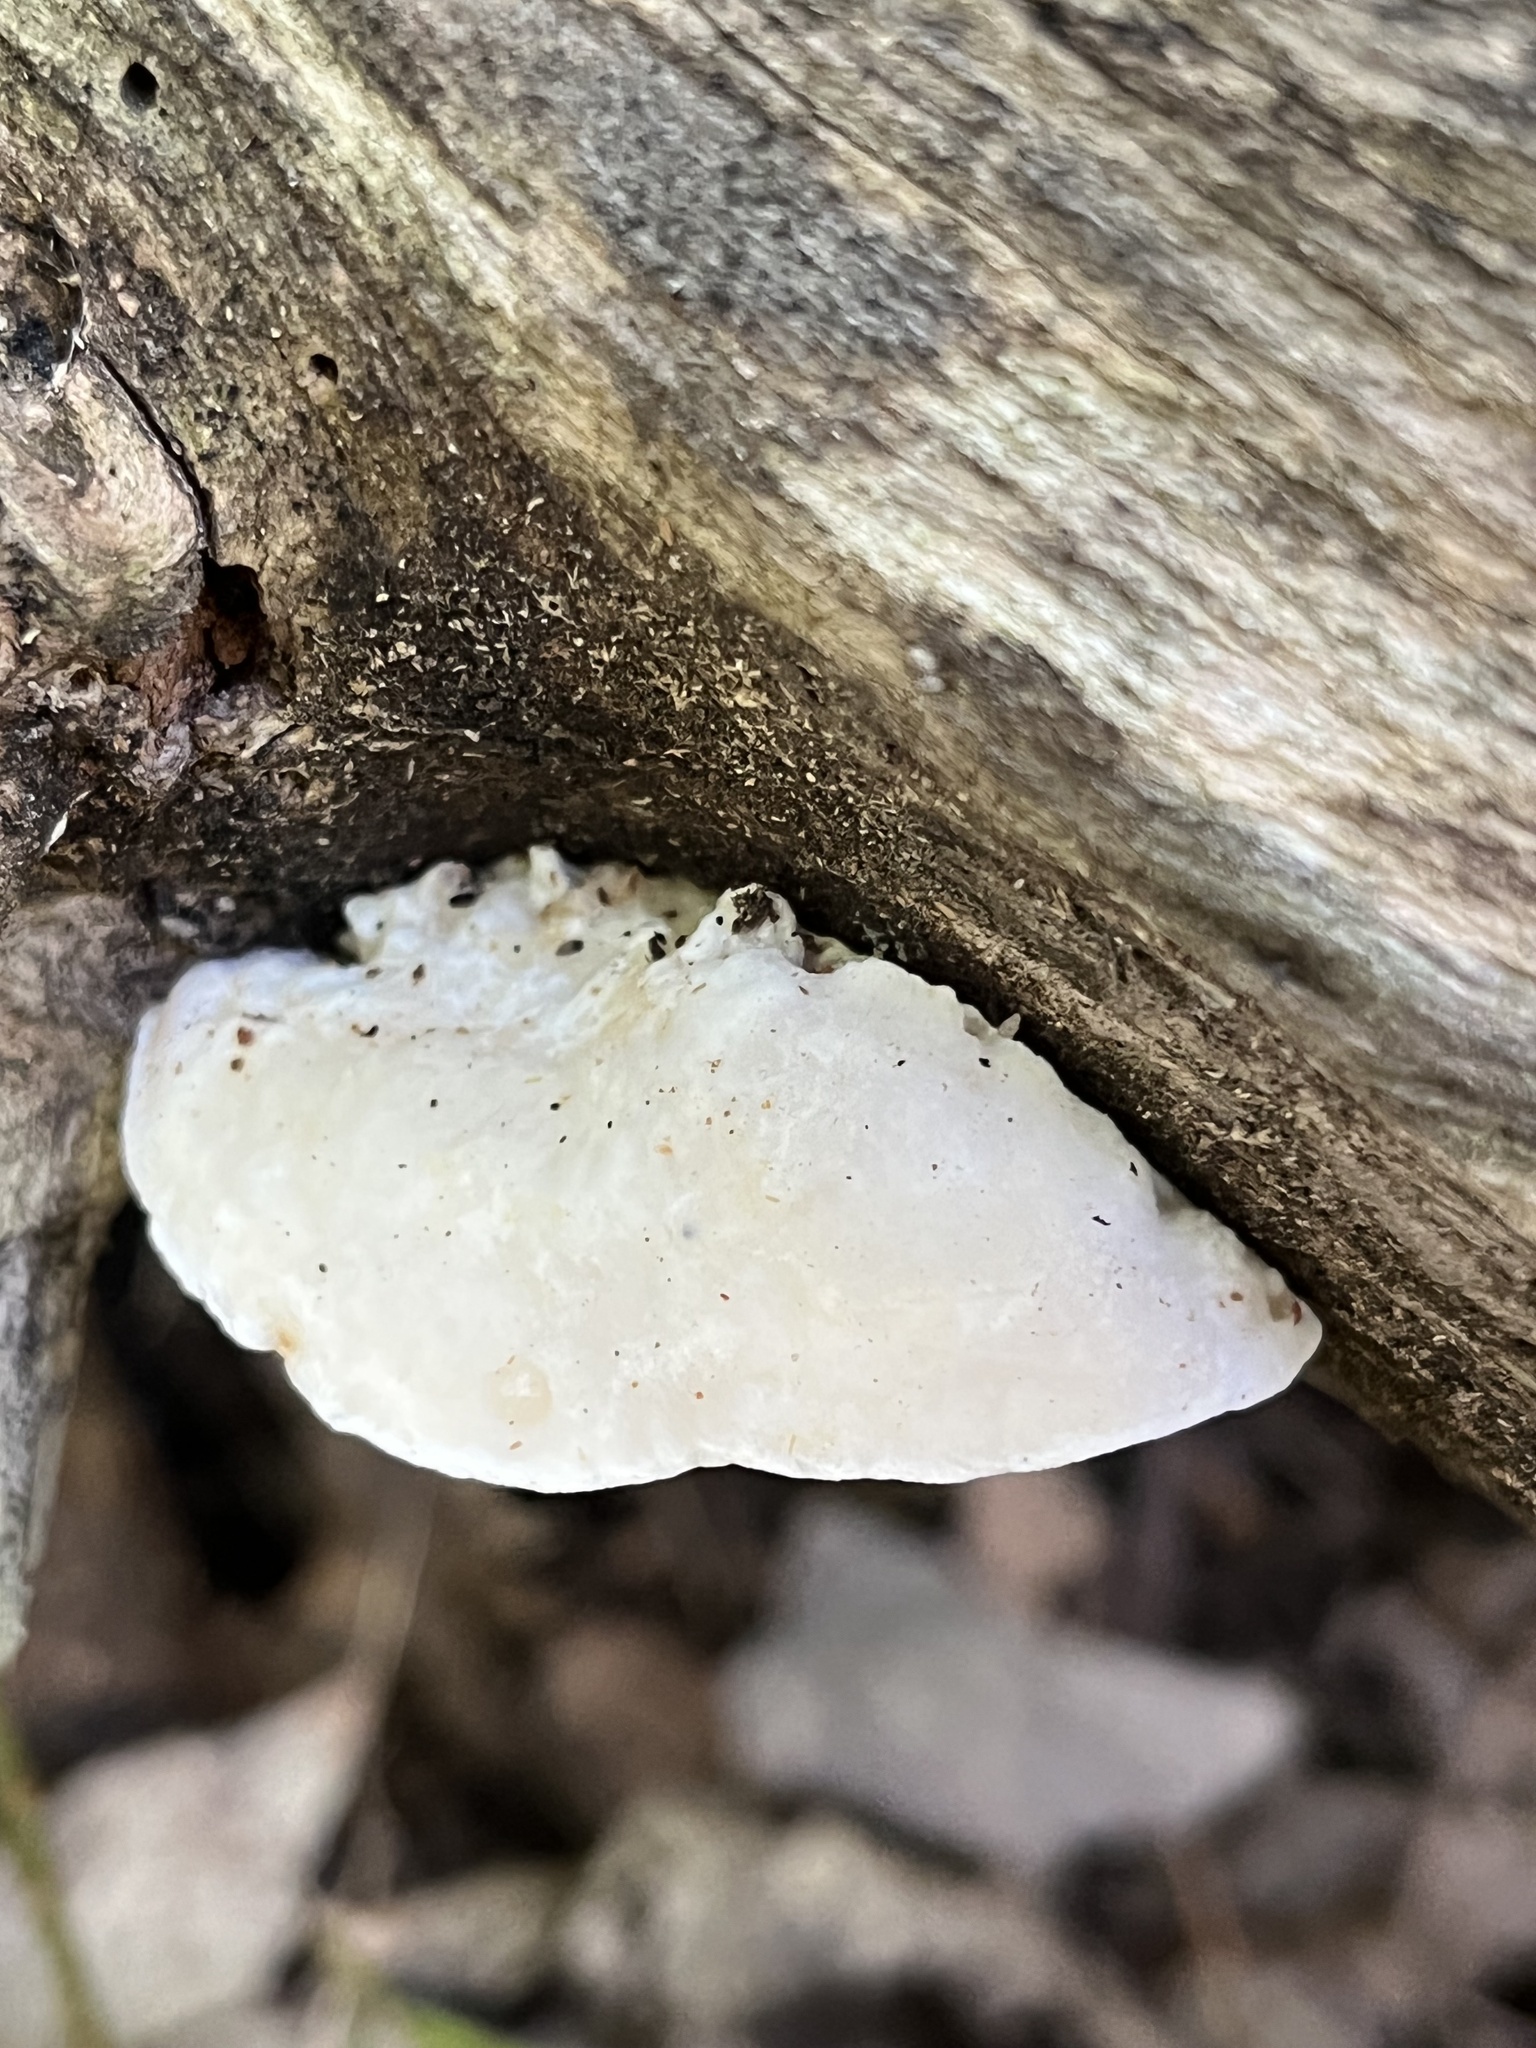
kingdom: Fungi
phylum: Basidiomycota
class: Agaricomycetes
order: Polyporales
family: Incrustoporiaceae
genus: Tyromyces
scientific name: Tyromyces chioneus
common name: White cheese polypore
